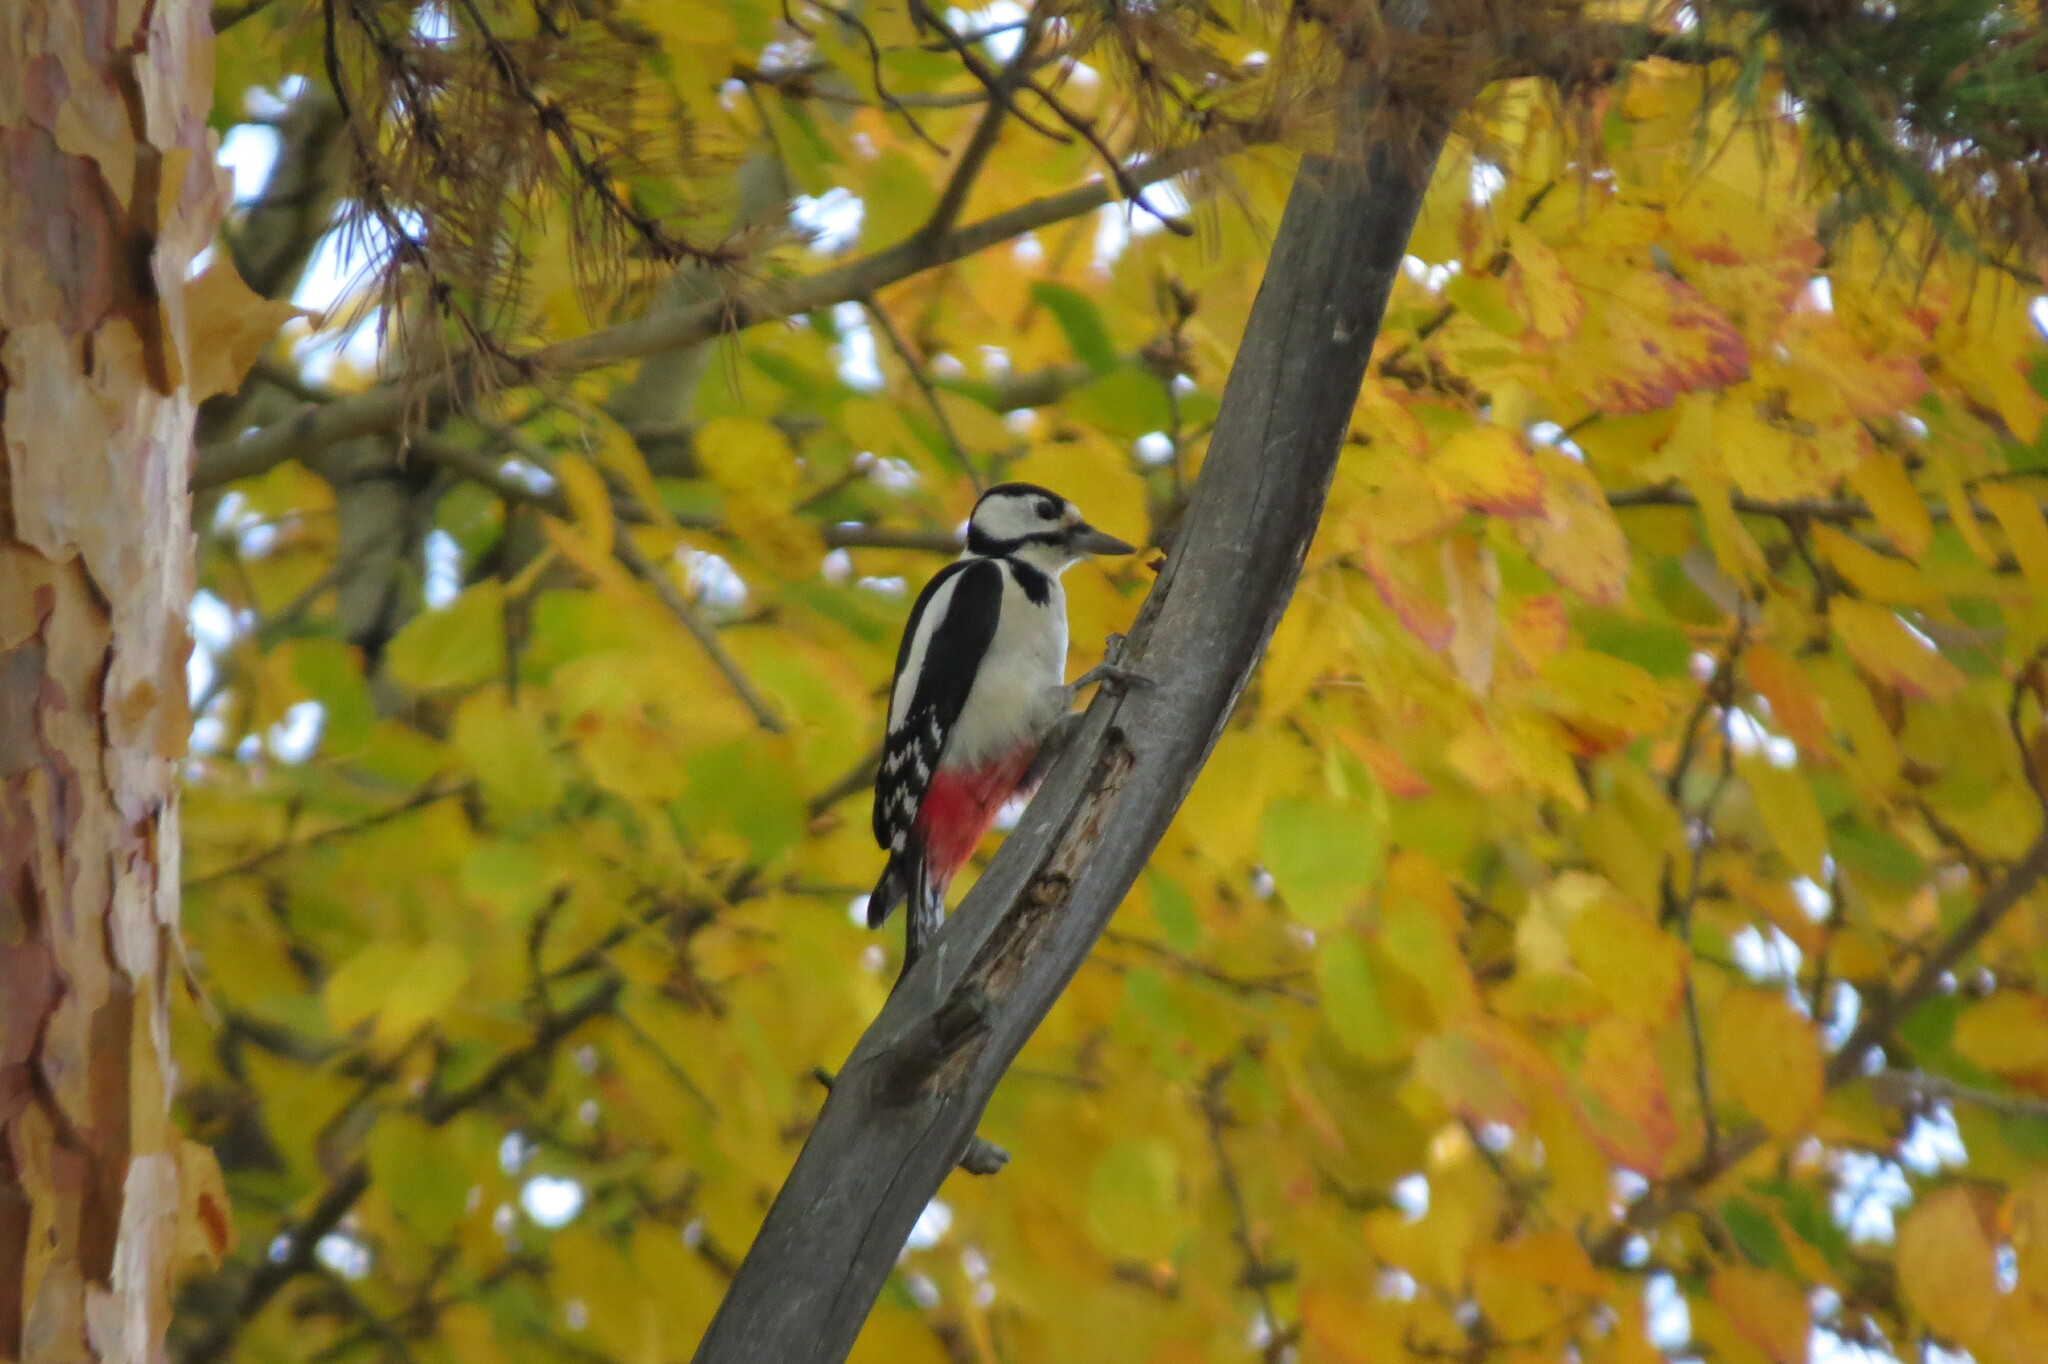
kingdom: Animalia
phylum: Chordata
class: Aves
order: Piciformes
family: Picidae
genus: Dendrocopos
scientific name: Dendrocopos major
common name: Great spotted woodpecker
